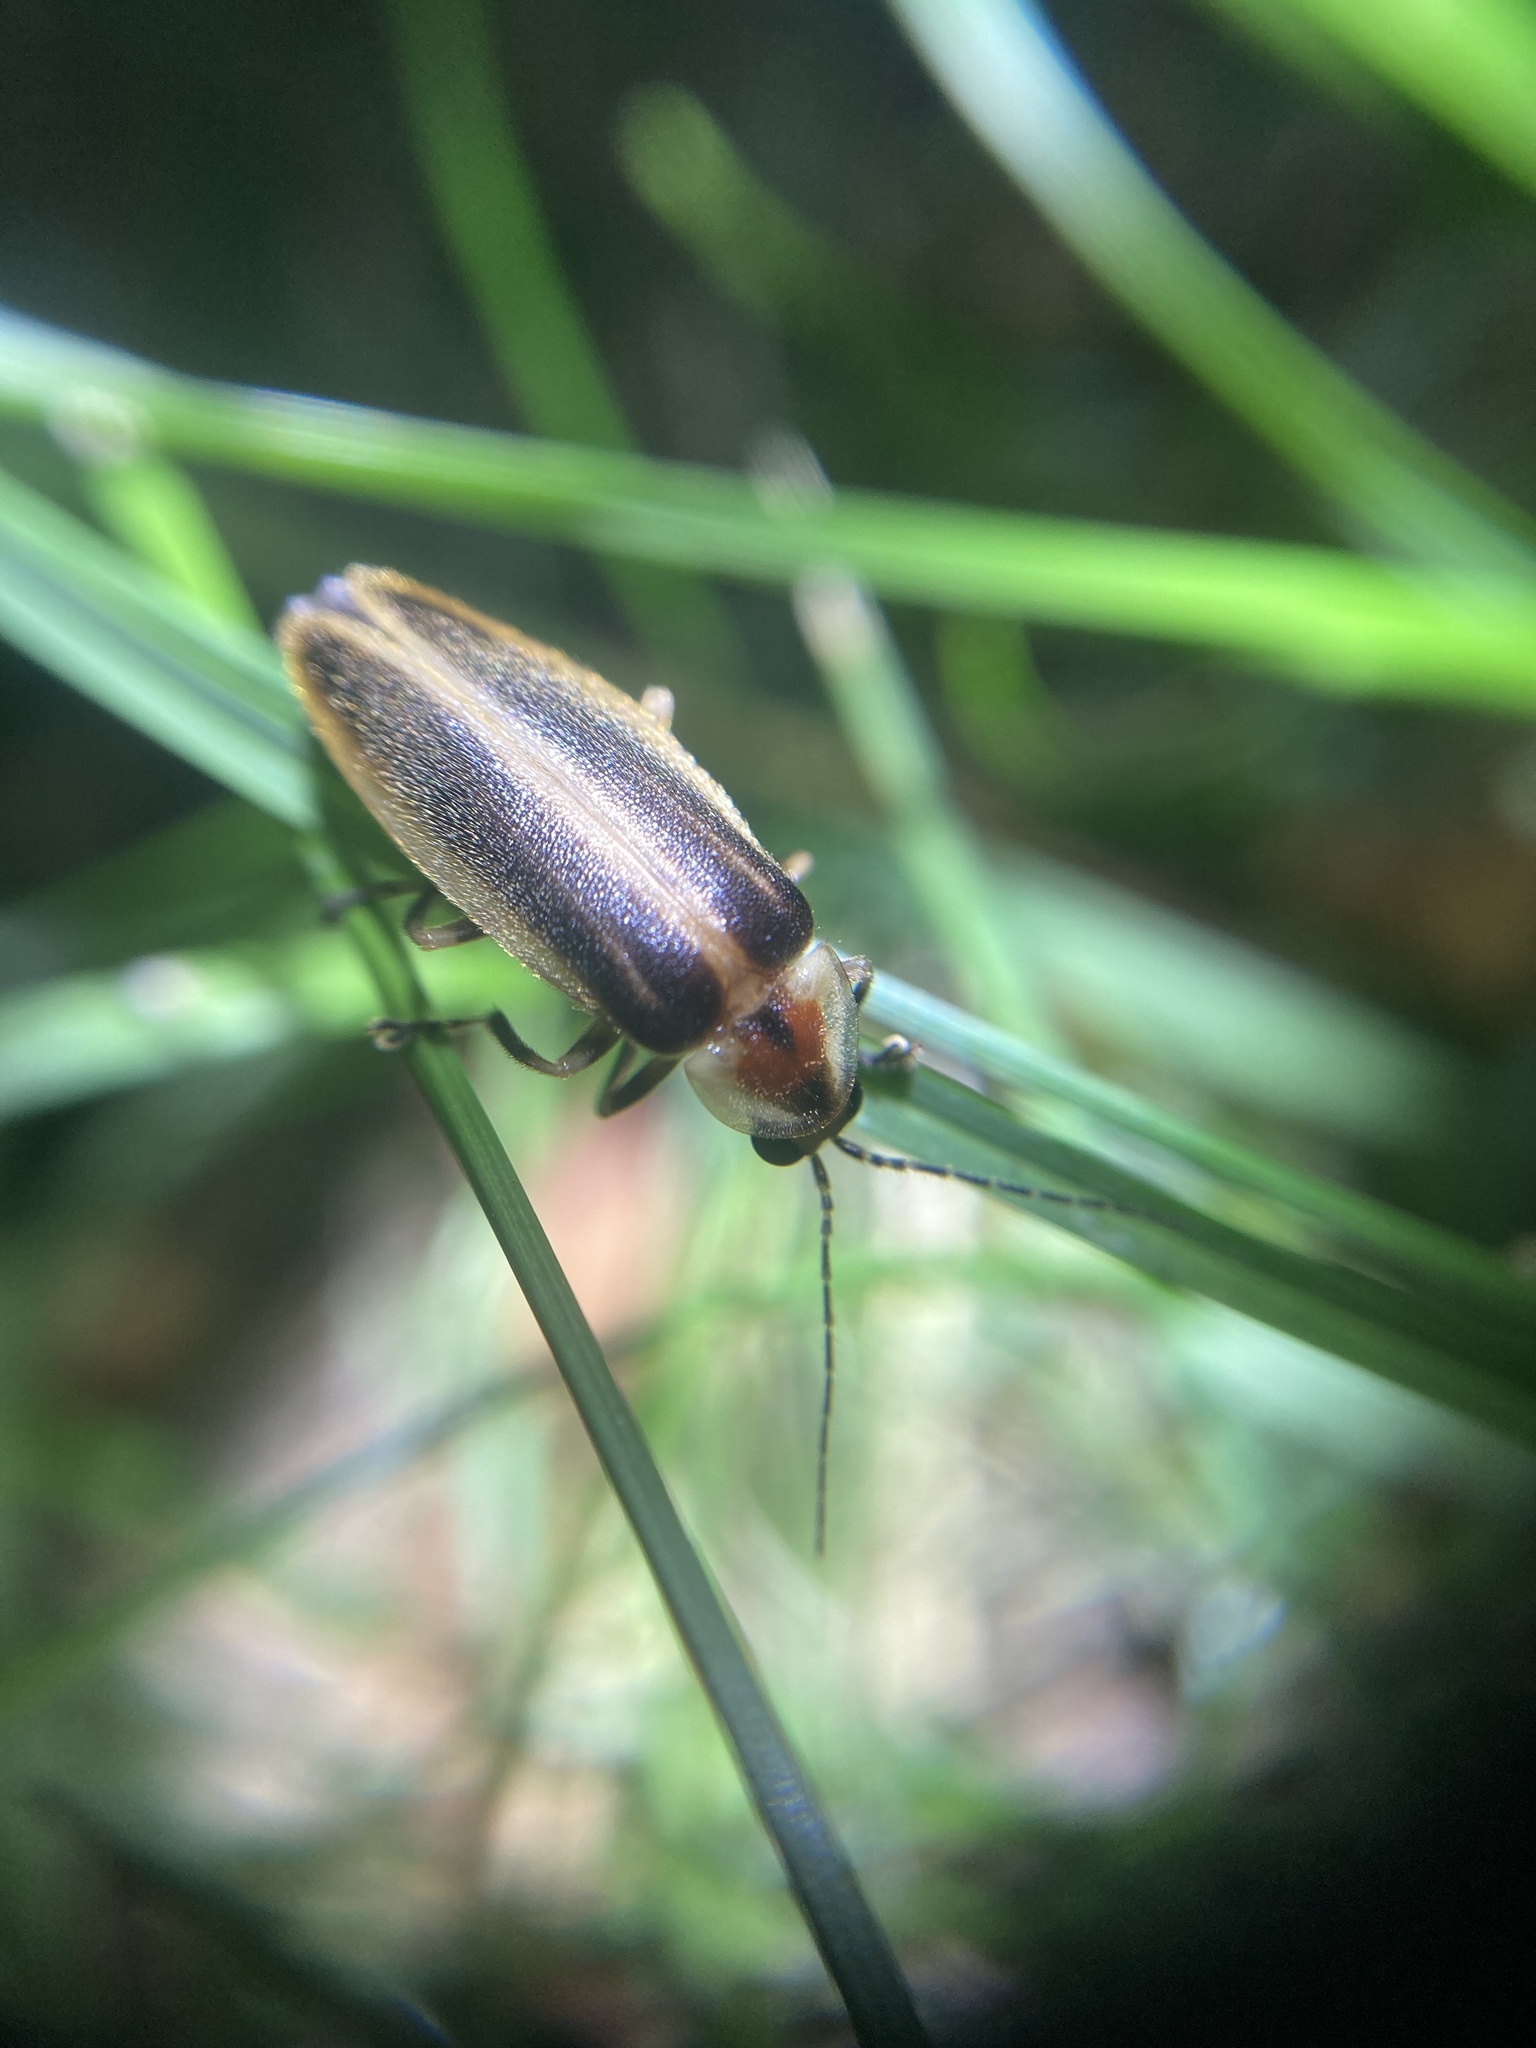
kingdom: Animalia
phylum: Arthropoda
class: Insecta
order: Coleoptera
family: Lampyridae
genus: Photuris
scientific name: Photuris
